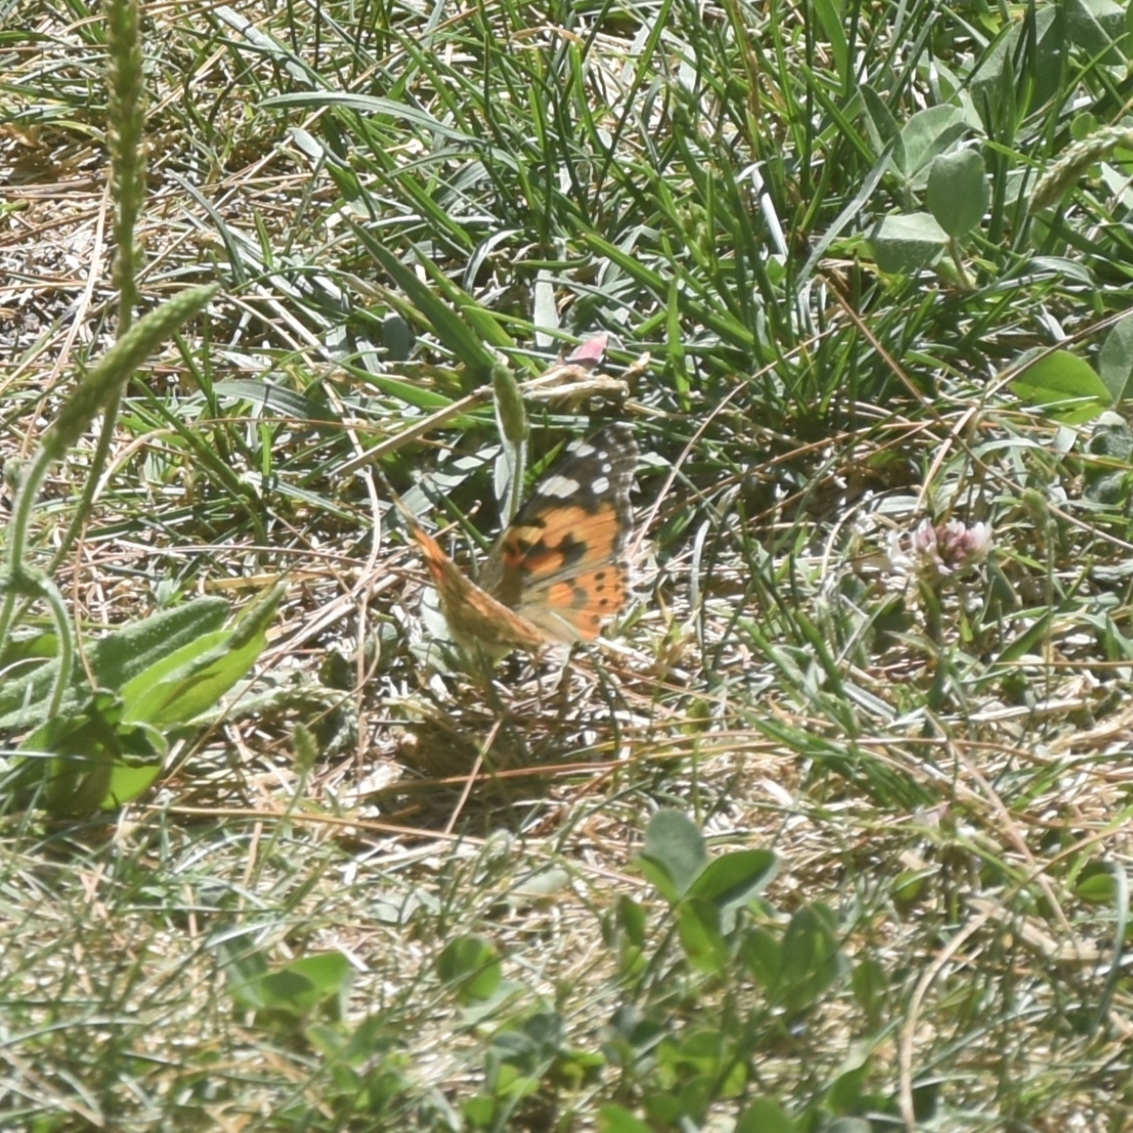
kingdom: Animalia
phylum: Arthropoda
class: Insecta
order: Lepidoptera
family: Nymphalidae
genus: Vanessa
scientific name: Vanessa cardui
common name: Painted lady
